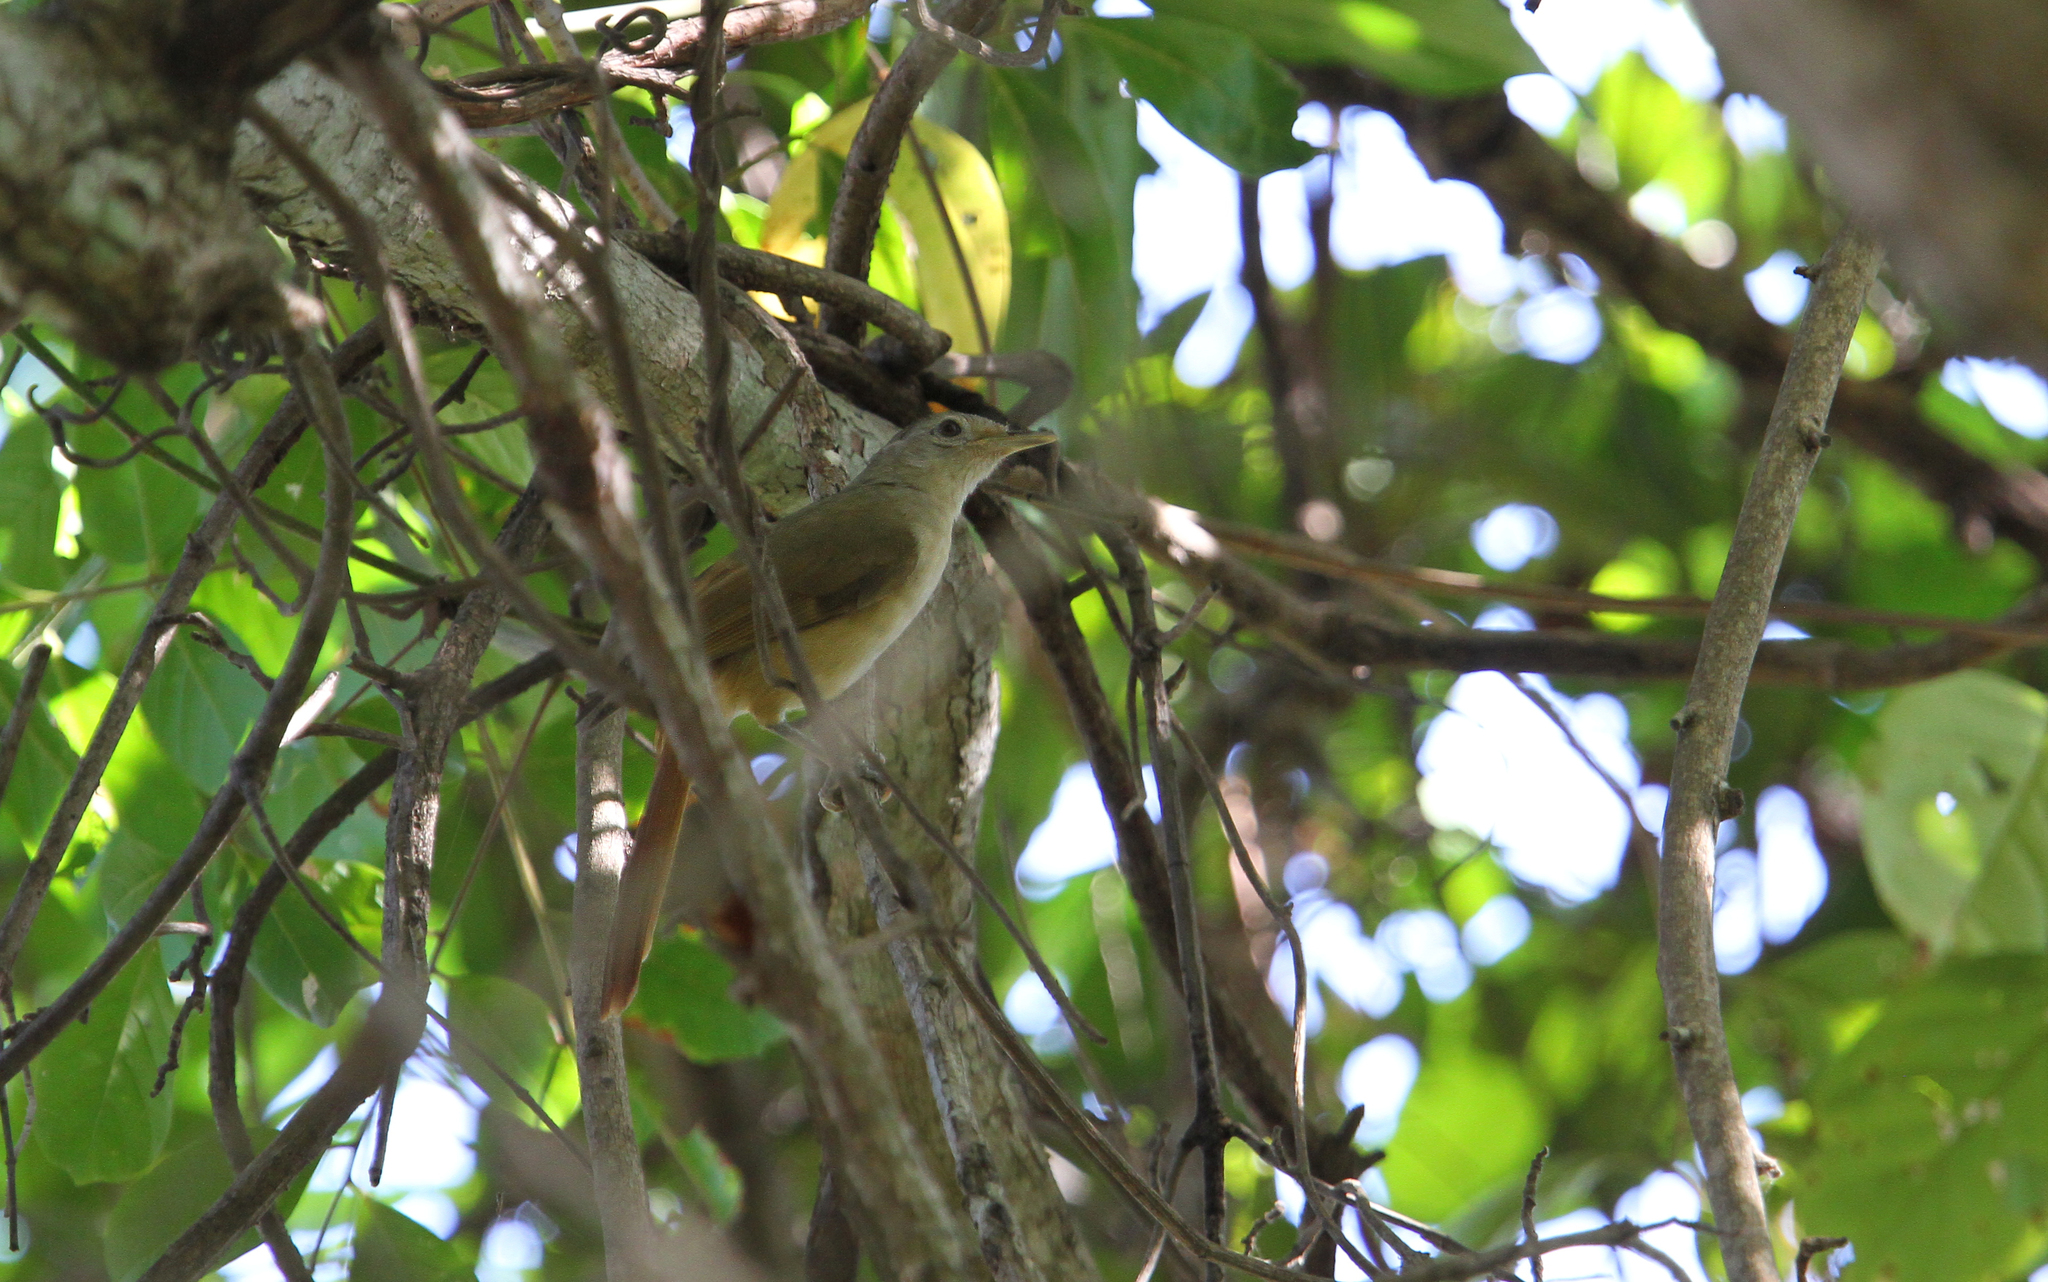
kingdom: Animalia
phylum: Chordata
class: Aves
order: Passeriformes
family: Pycnonotidae
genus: Phyllastrephus
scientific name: Phyllastrephus scandens
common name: Red-tailed leaflove
